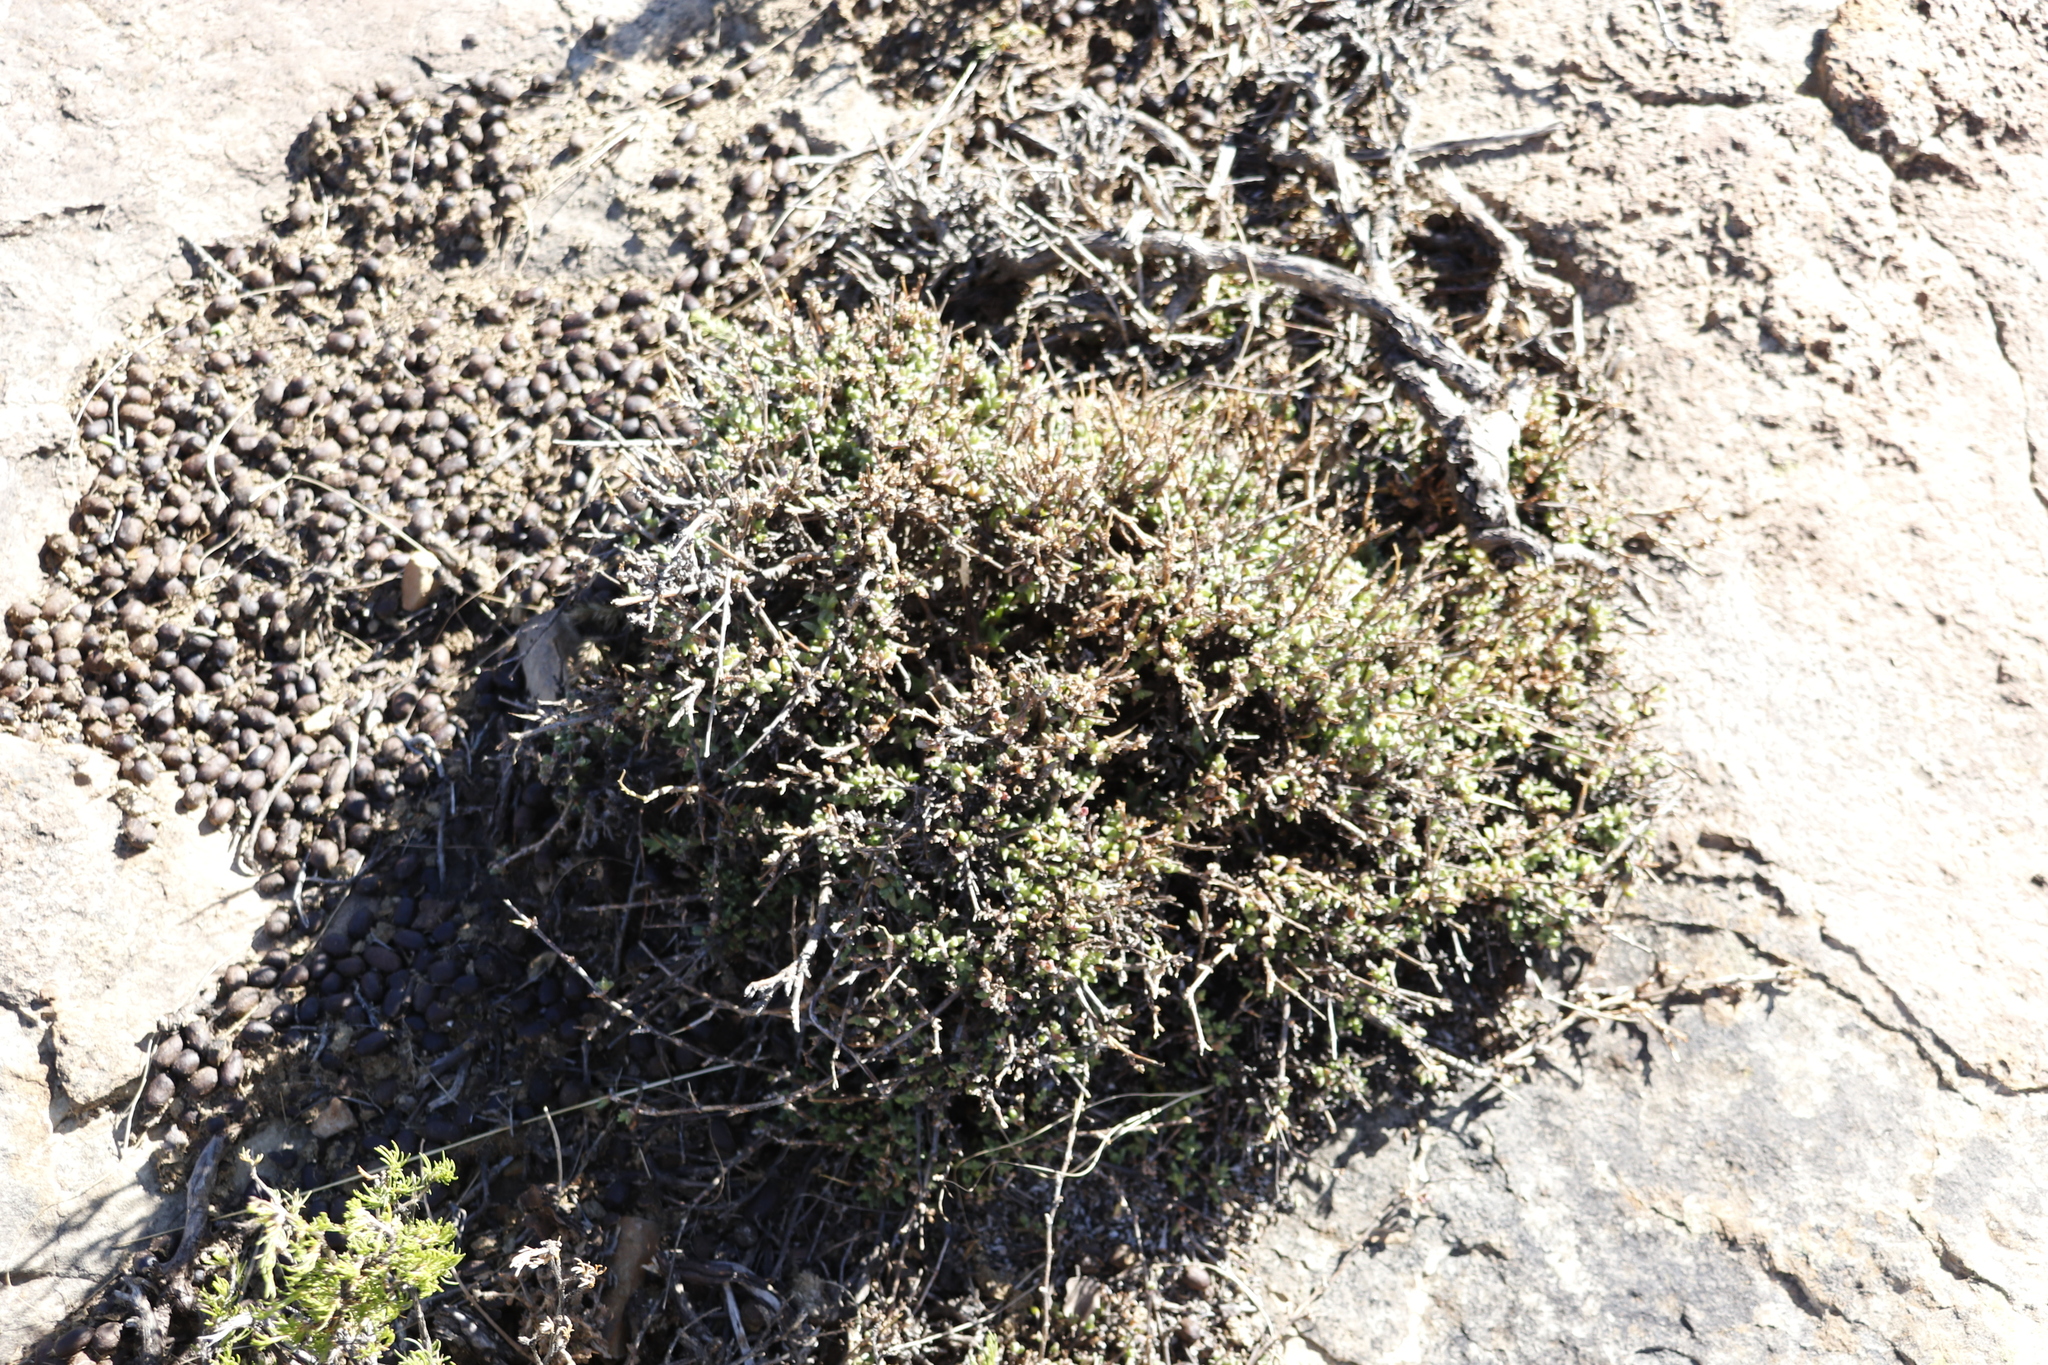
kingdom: Plantae
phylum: Tracheophyta
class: Magnoliopsida
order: Caryophyllales
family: Aizoaceae
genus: Ruschia
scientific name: Ruschia putterillii
